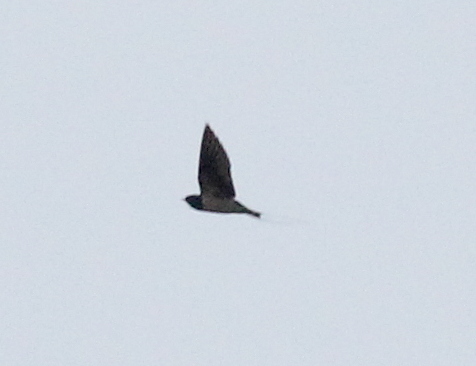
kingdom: Animalia
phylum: Chordata
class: Aves
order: Passeriformes
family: Hirundinidae
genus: Hirundo
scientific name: Hirundo rustica
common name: Barn swallow
